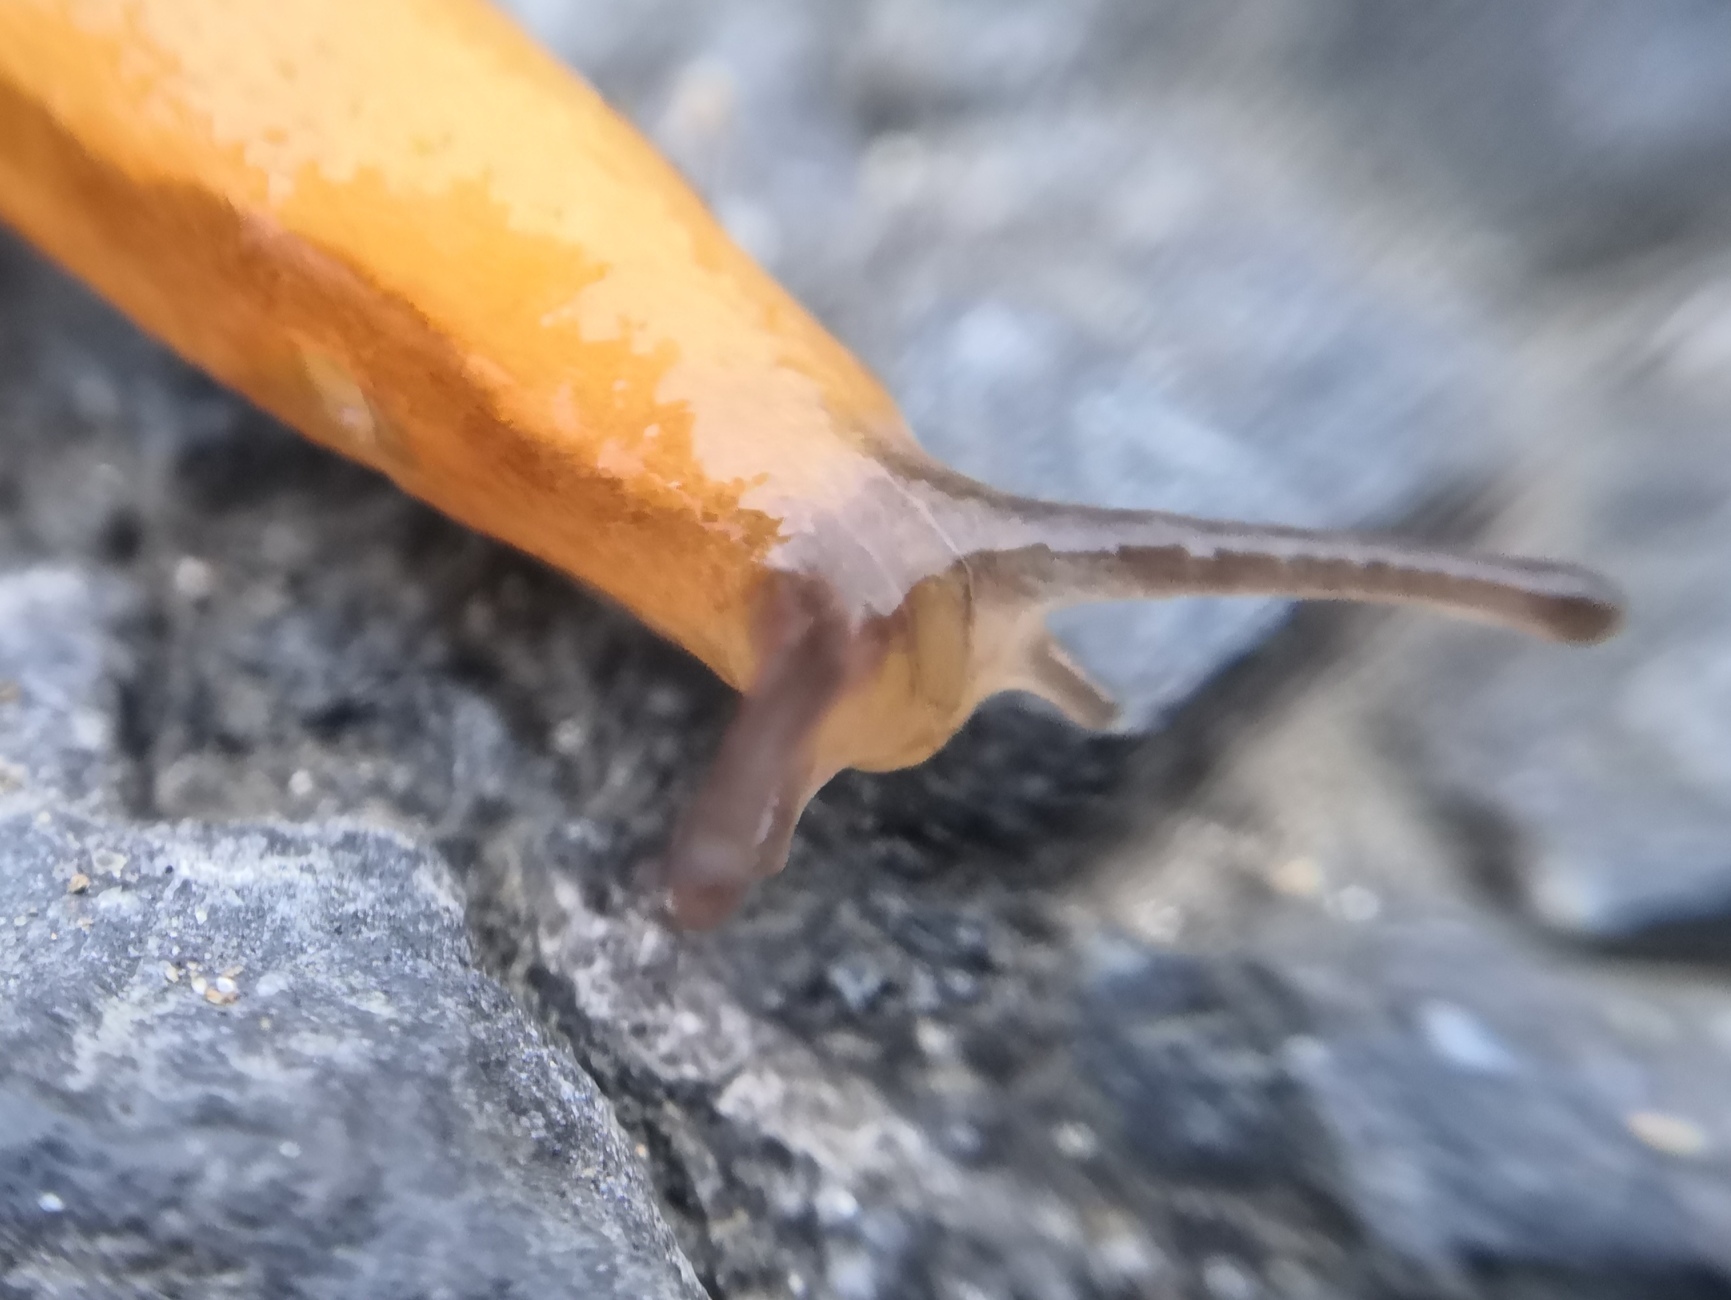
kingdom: Animalia
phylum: Mollusca
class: Gastropoda
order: Stylommatophora
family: Arionidae
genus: Arion
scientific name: Arion fuscus
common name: Northern dusky slug
